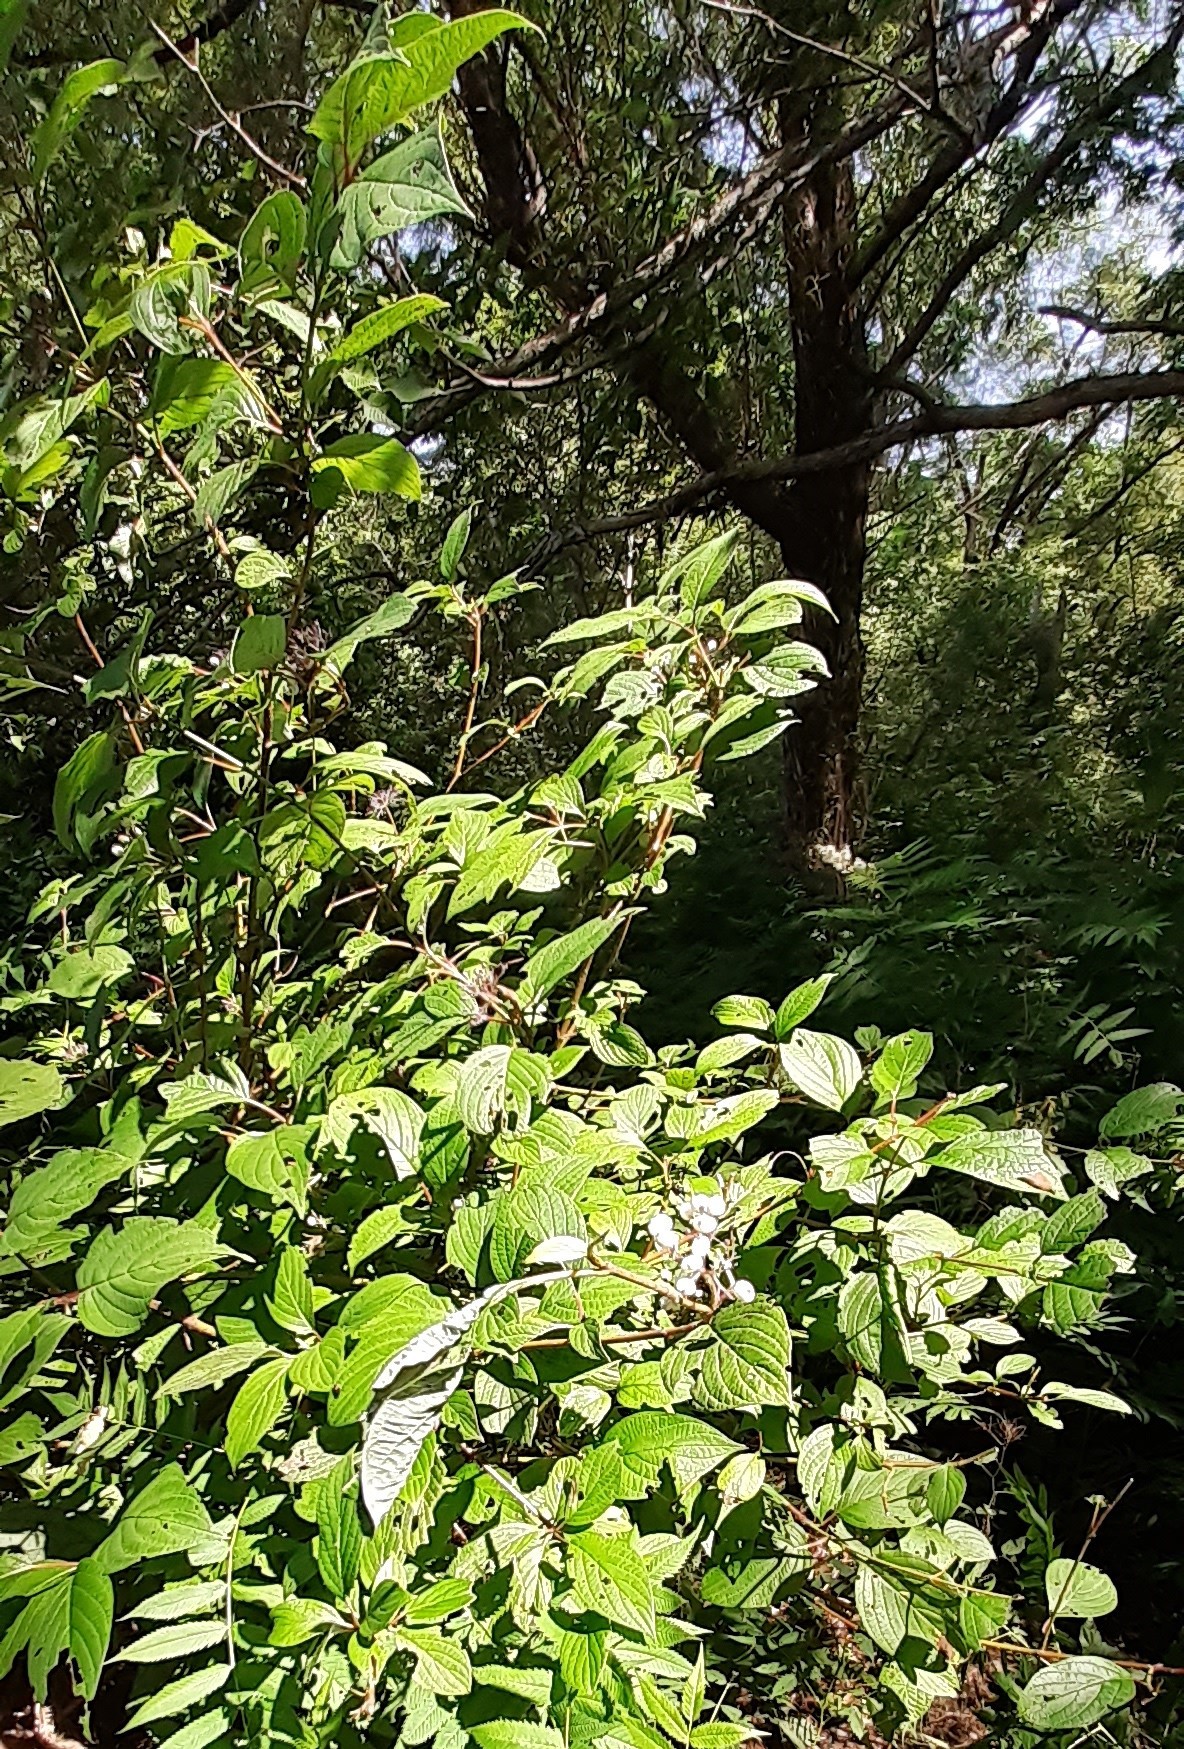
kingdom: Plantae
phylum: Tracheophyta
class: Magnoliopsida
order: Cornales
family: Cornaceae
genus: Cornus
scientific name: Cornus alba
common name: White dogwood
